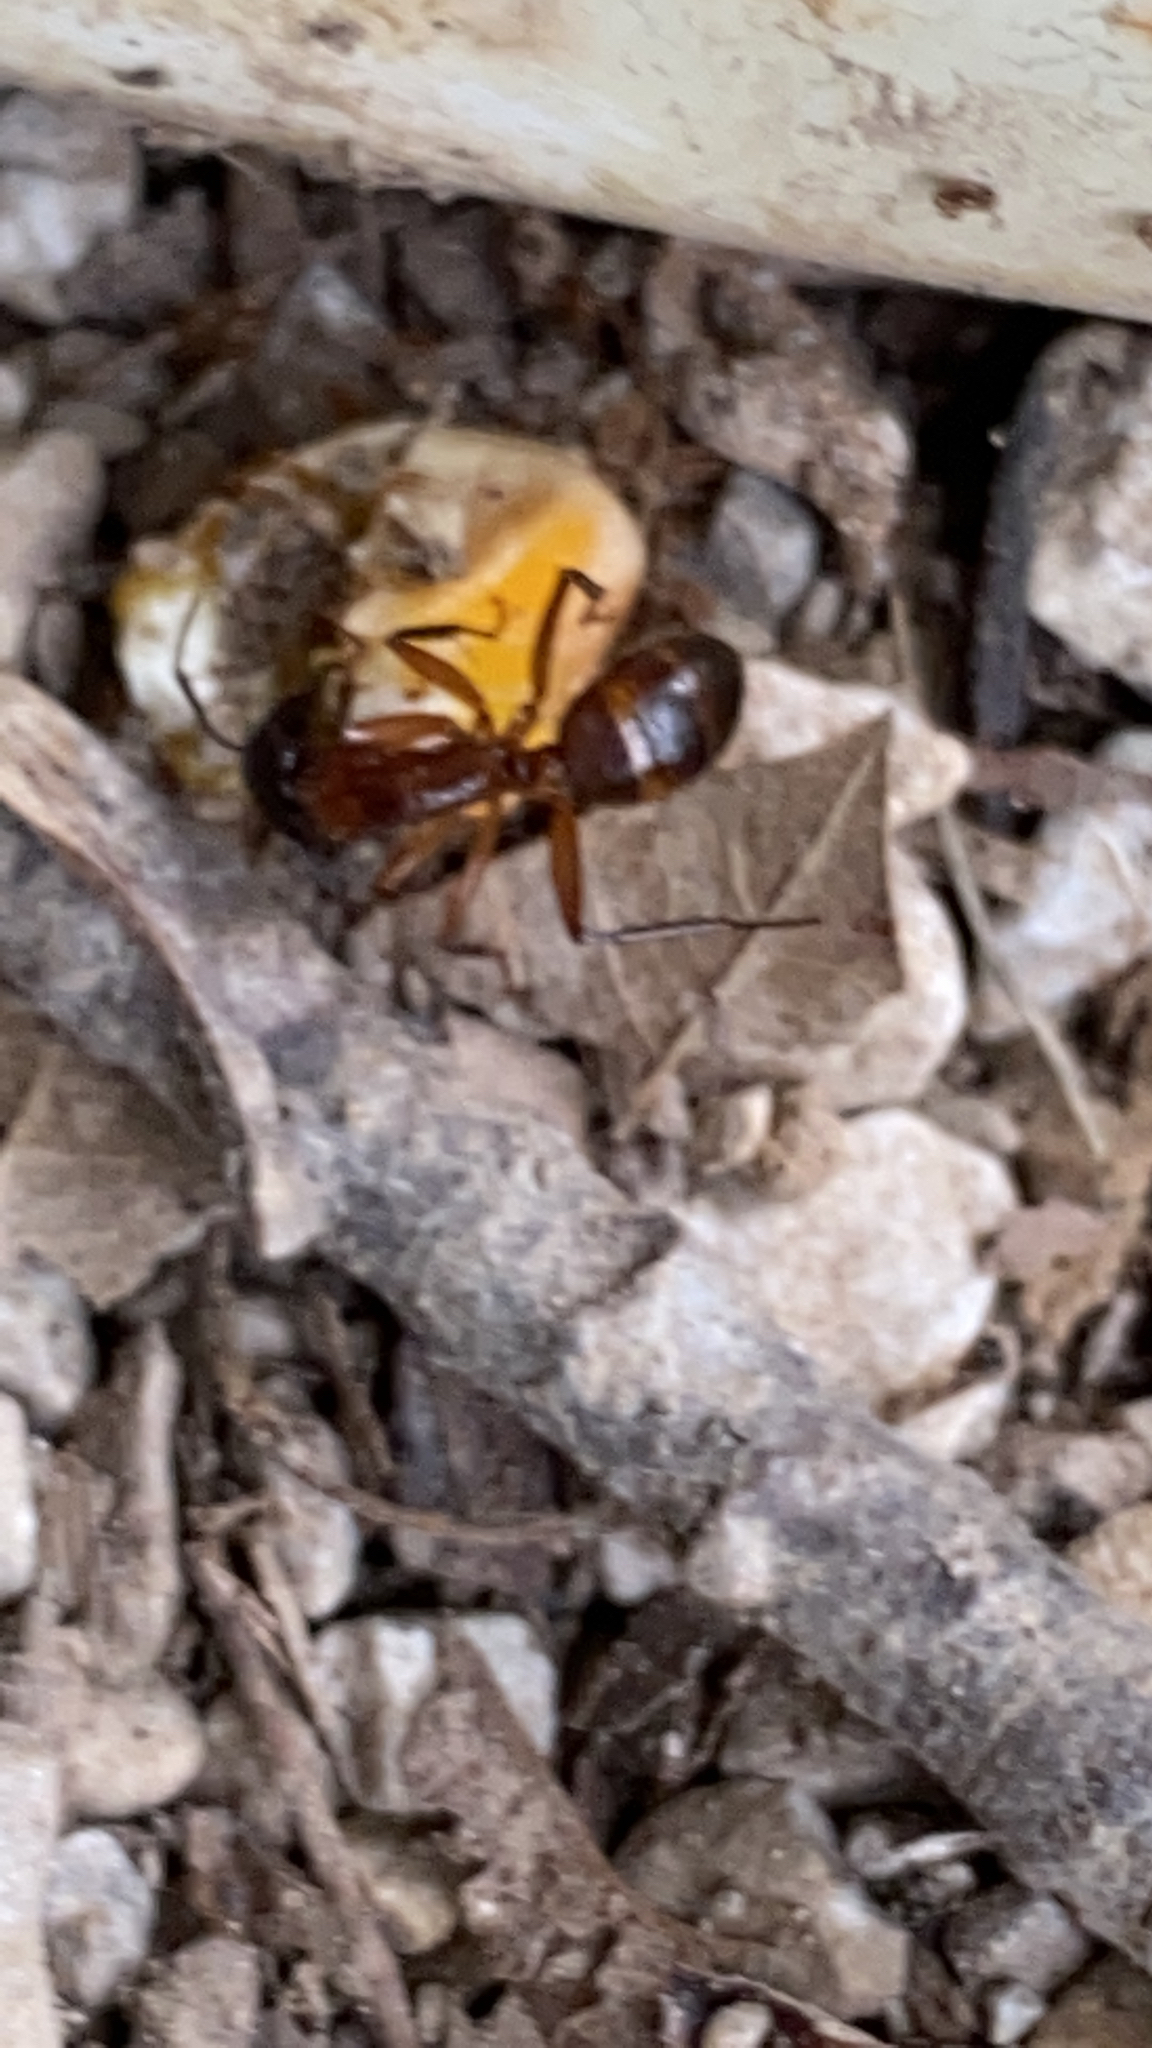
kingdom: Animalia
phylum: Arthropoda
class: Insecta
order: Hymenoptera
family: Formicidae
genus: Camponotus
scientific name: Camponotus americanus
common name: American carpenter ant
